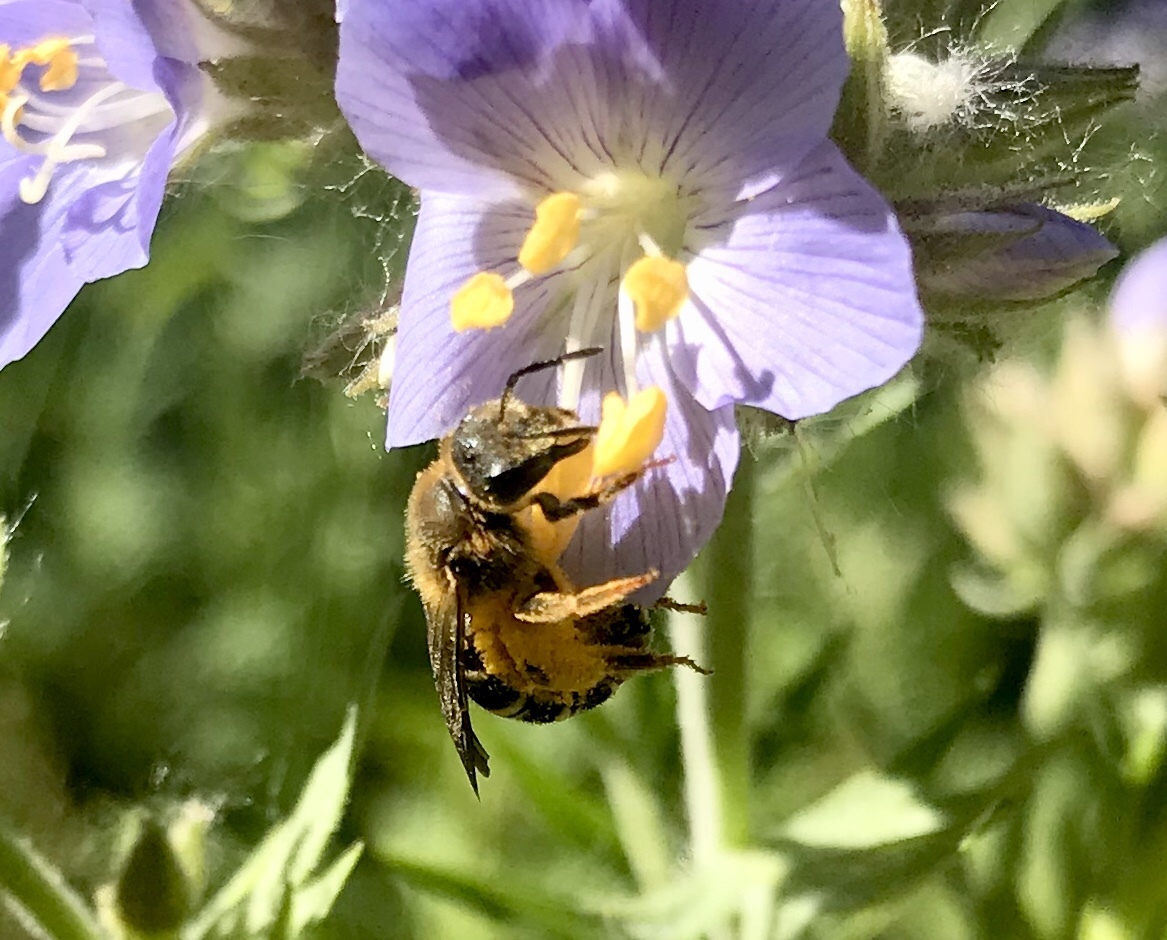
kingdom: Animalia
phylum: Arthropoda
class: Insecta
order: Hymenoptera
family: Halictidae
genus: Halictus
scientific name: Halictus rubicundus
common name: Orange-legged furrow bee
